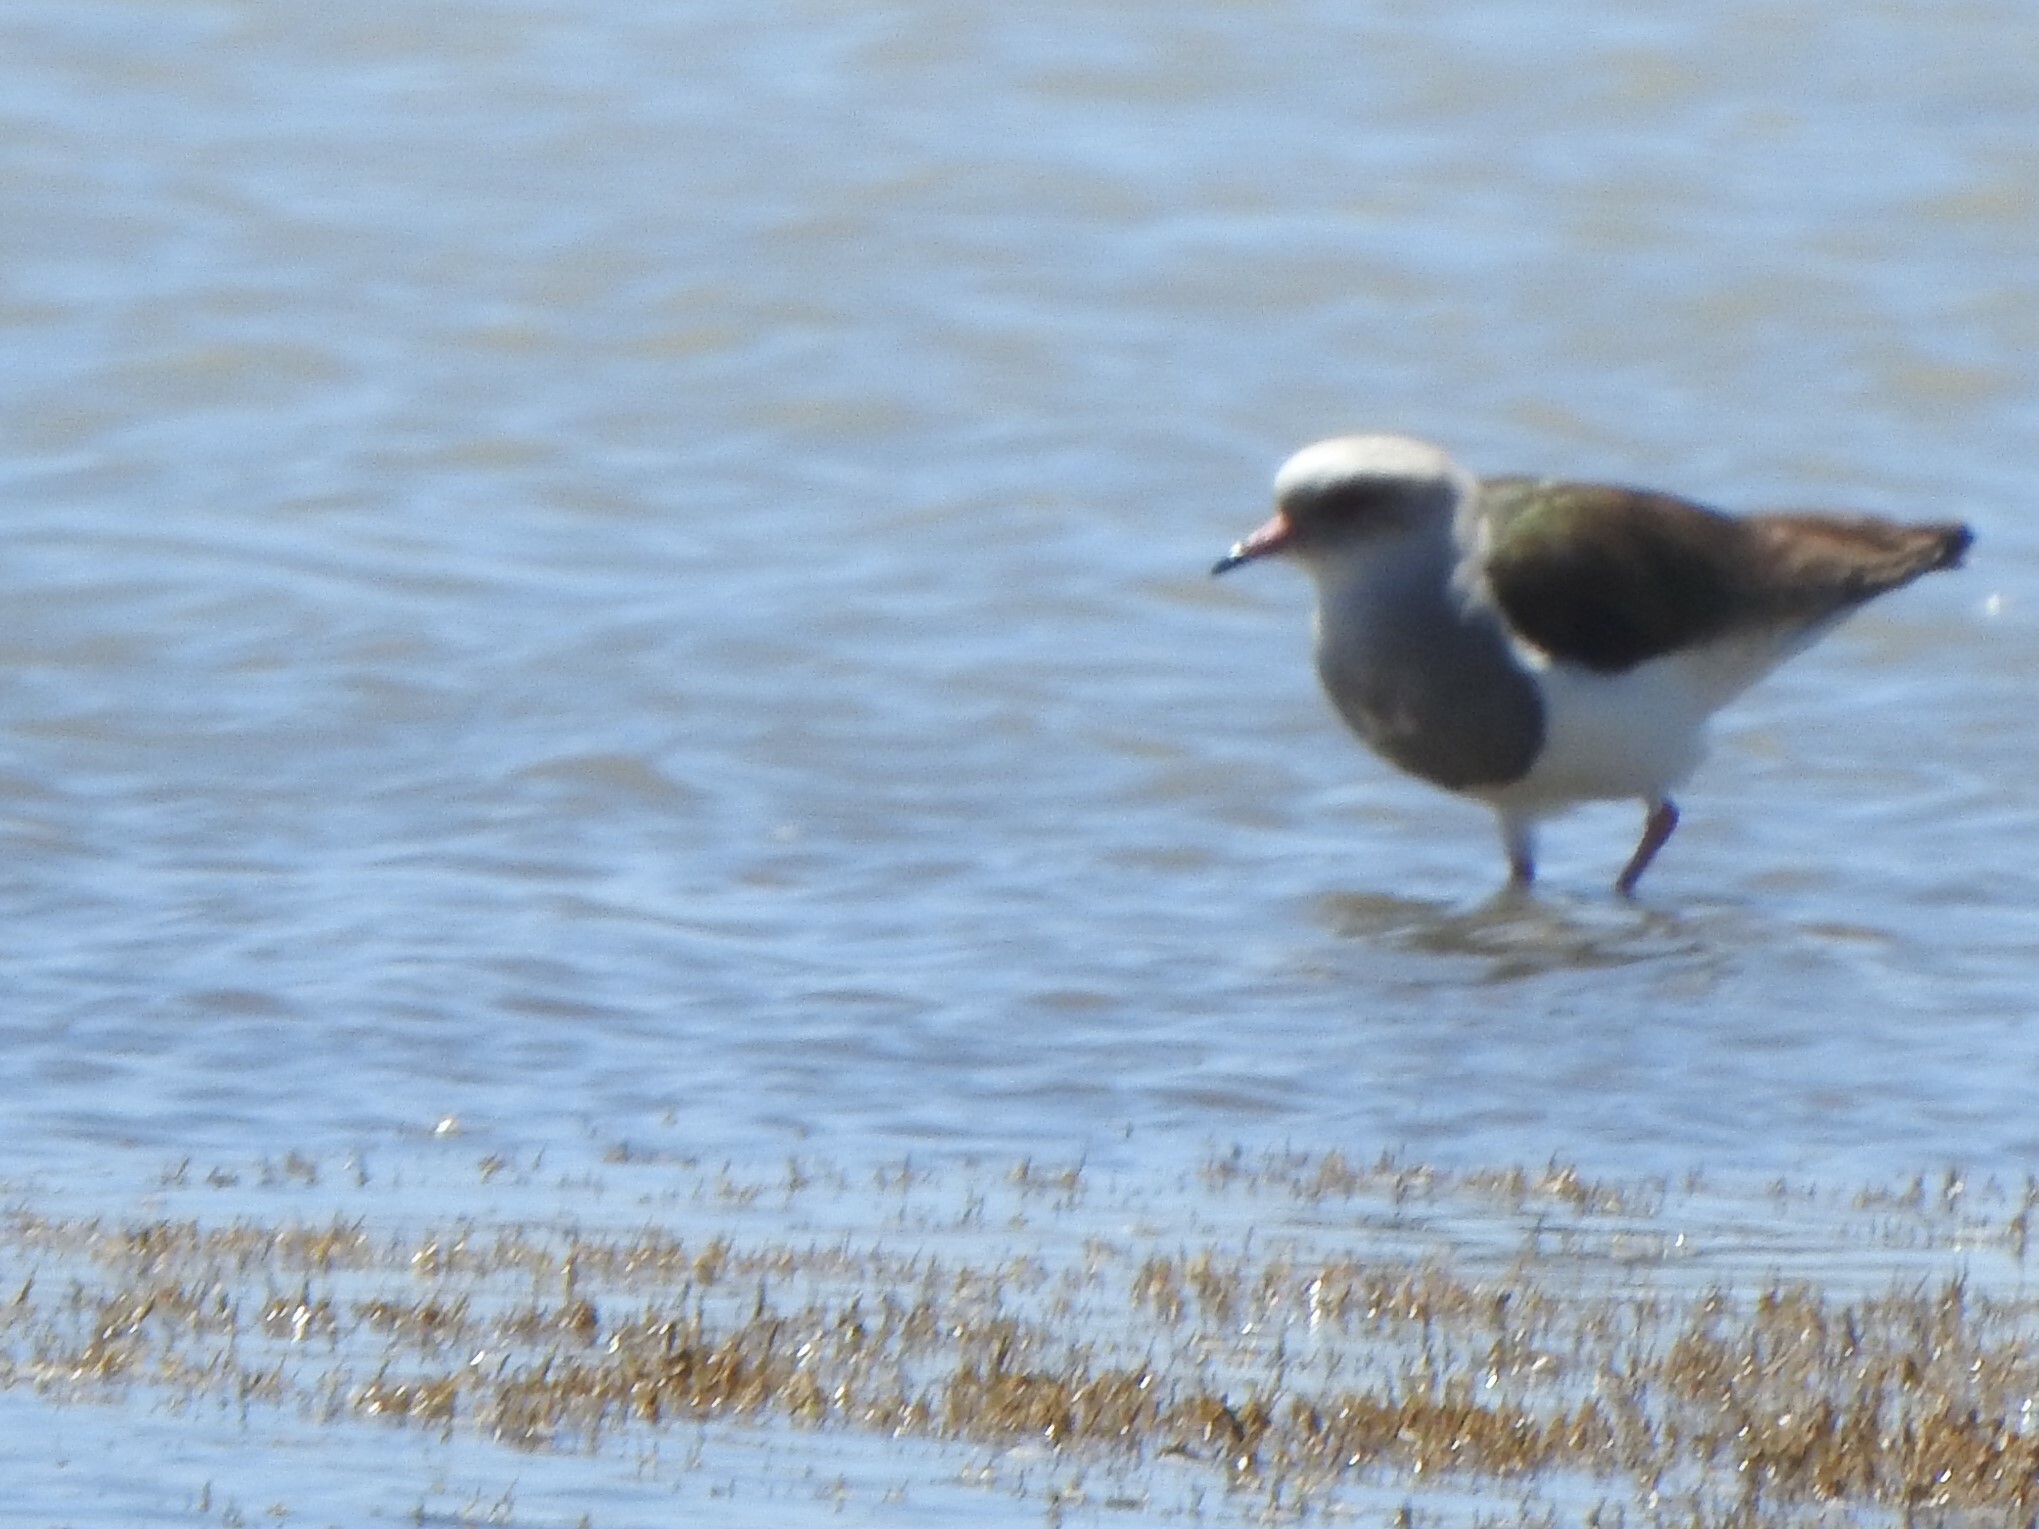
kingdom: Animalia
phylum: Chordata
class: Aves
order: Charadriiformes
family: Charadriidae
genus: Vanellus
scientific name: Vanellus resplendens
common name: Andean lapwing
